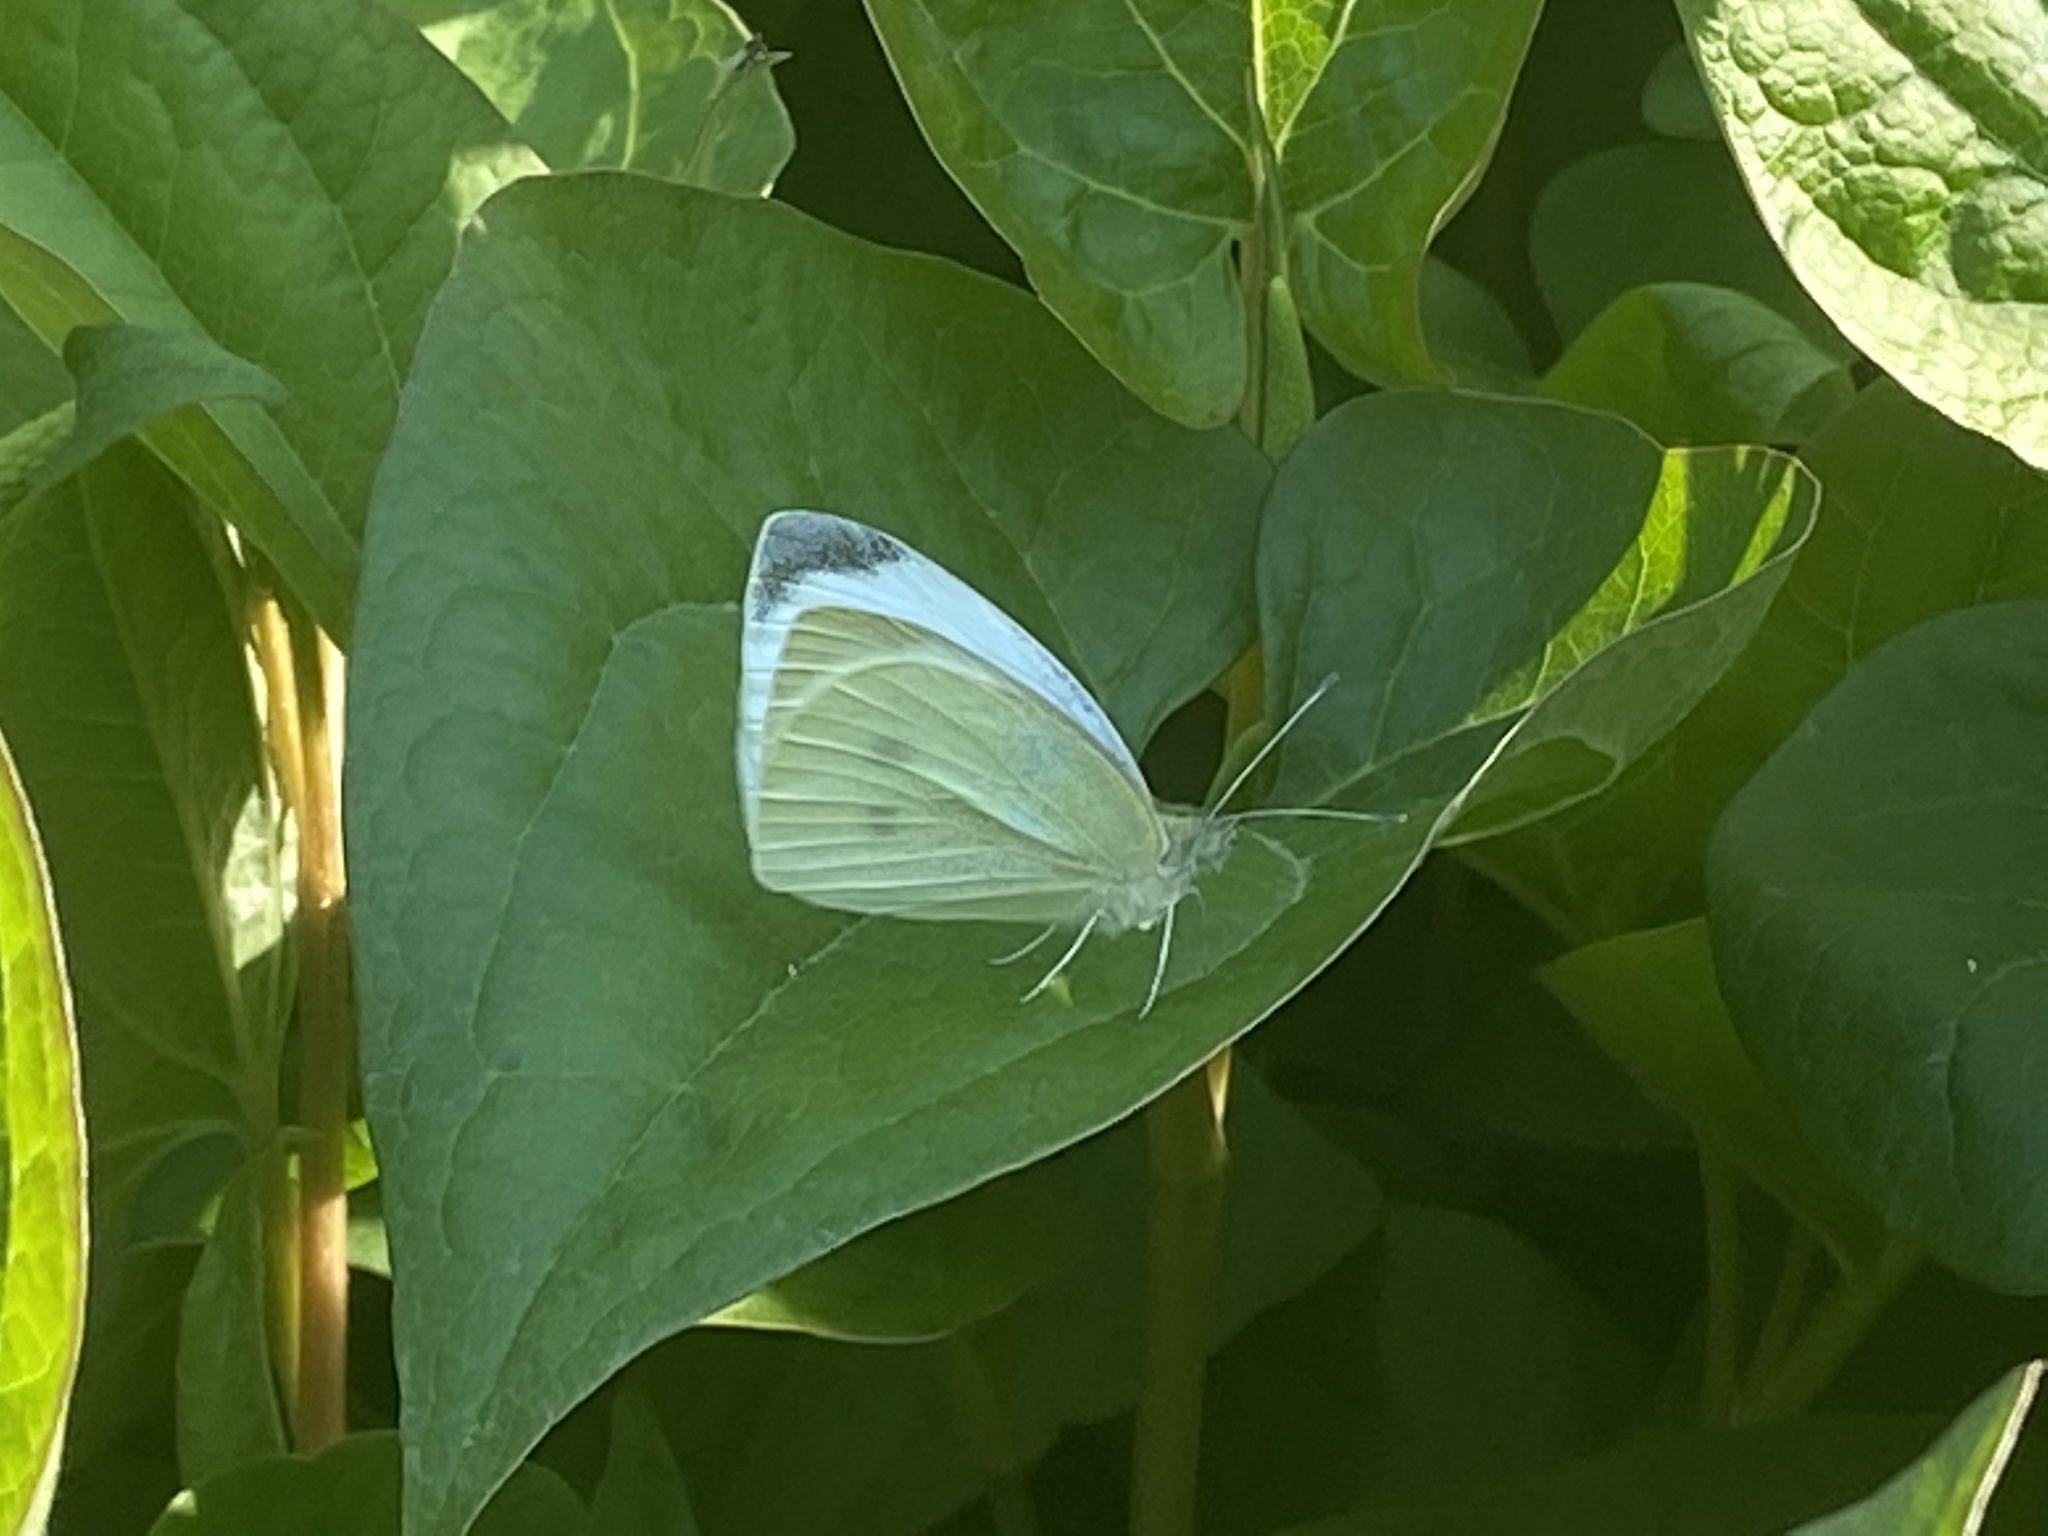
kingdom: Animalia
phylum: Arthropoda
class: Insecta
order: Lepidoptera
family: Pieridae
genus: Pieris
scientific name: Pieris rapae
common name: Small white
